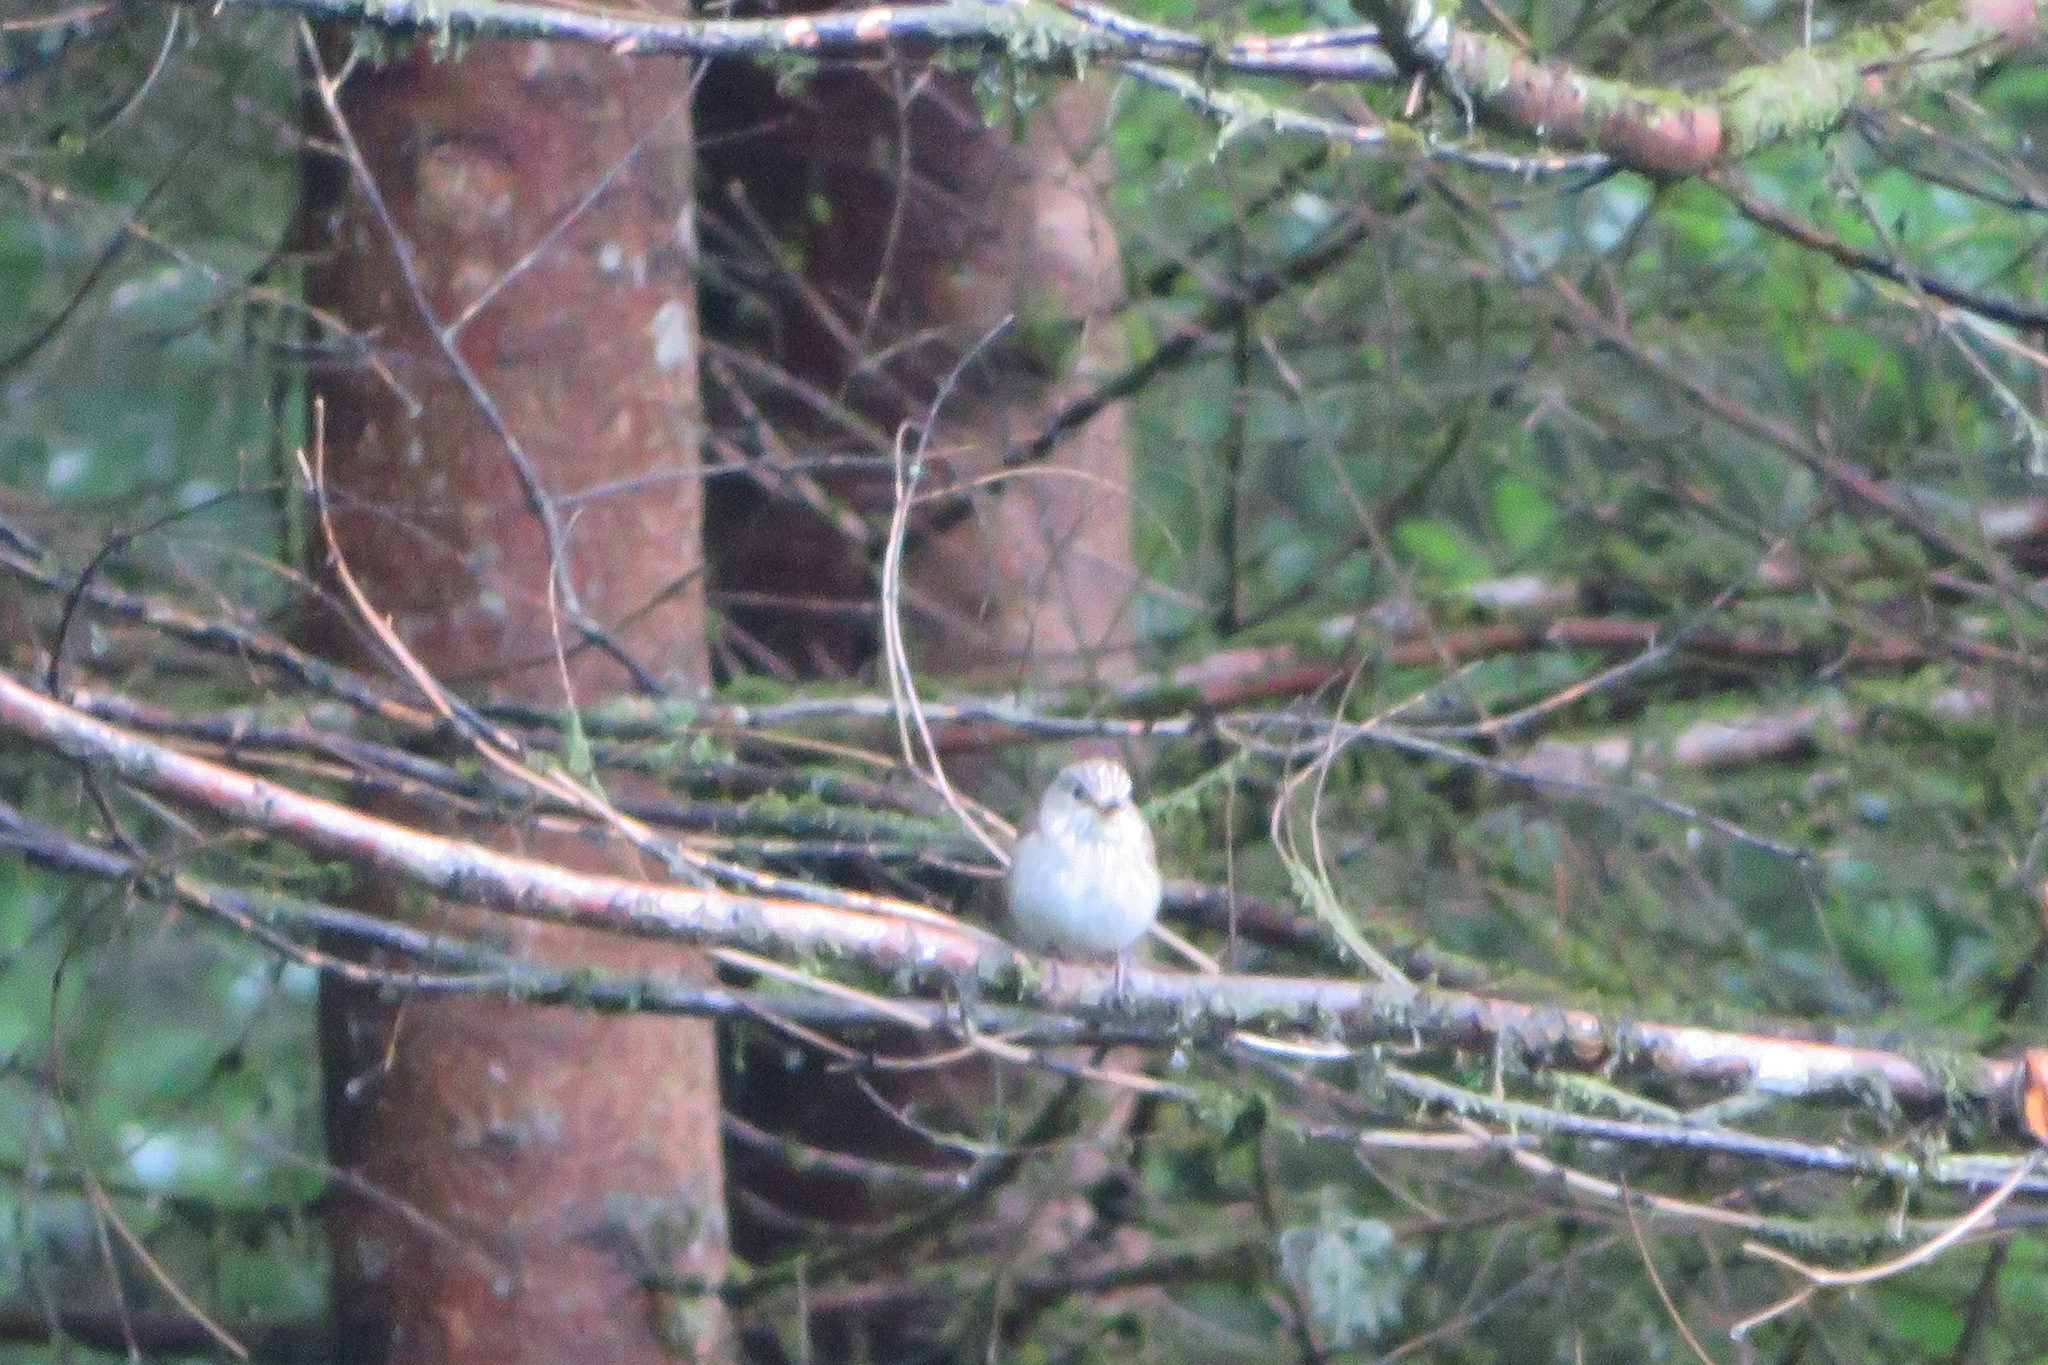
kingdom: Animalia
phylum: Chordata
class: Aves
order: Passeriformes
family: Muscicapidae
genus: Muscicapa
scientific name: Muscicapa striata
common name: Spotted flycatcher
